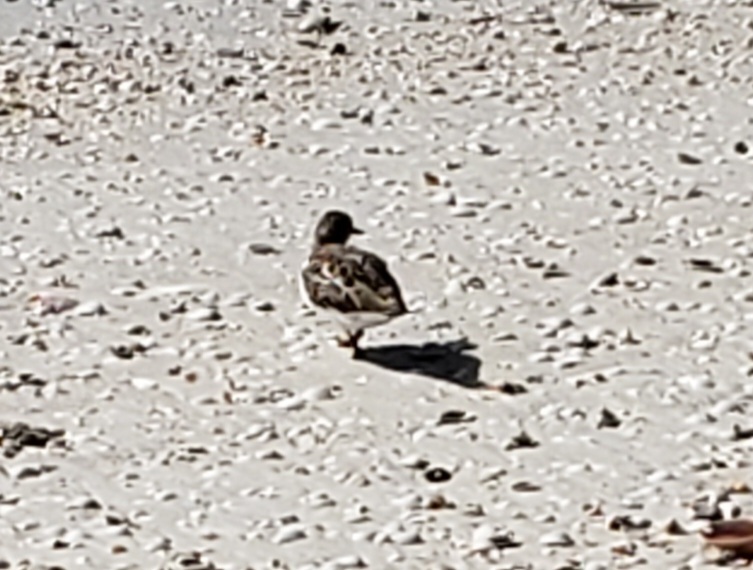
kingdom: Animalia
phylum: Chordata
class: Aves
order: Charadriiformes
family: Scolopacidae
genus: Arenaria
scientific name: Arenaria interpres
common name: Ruddy turnstone
